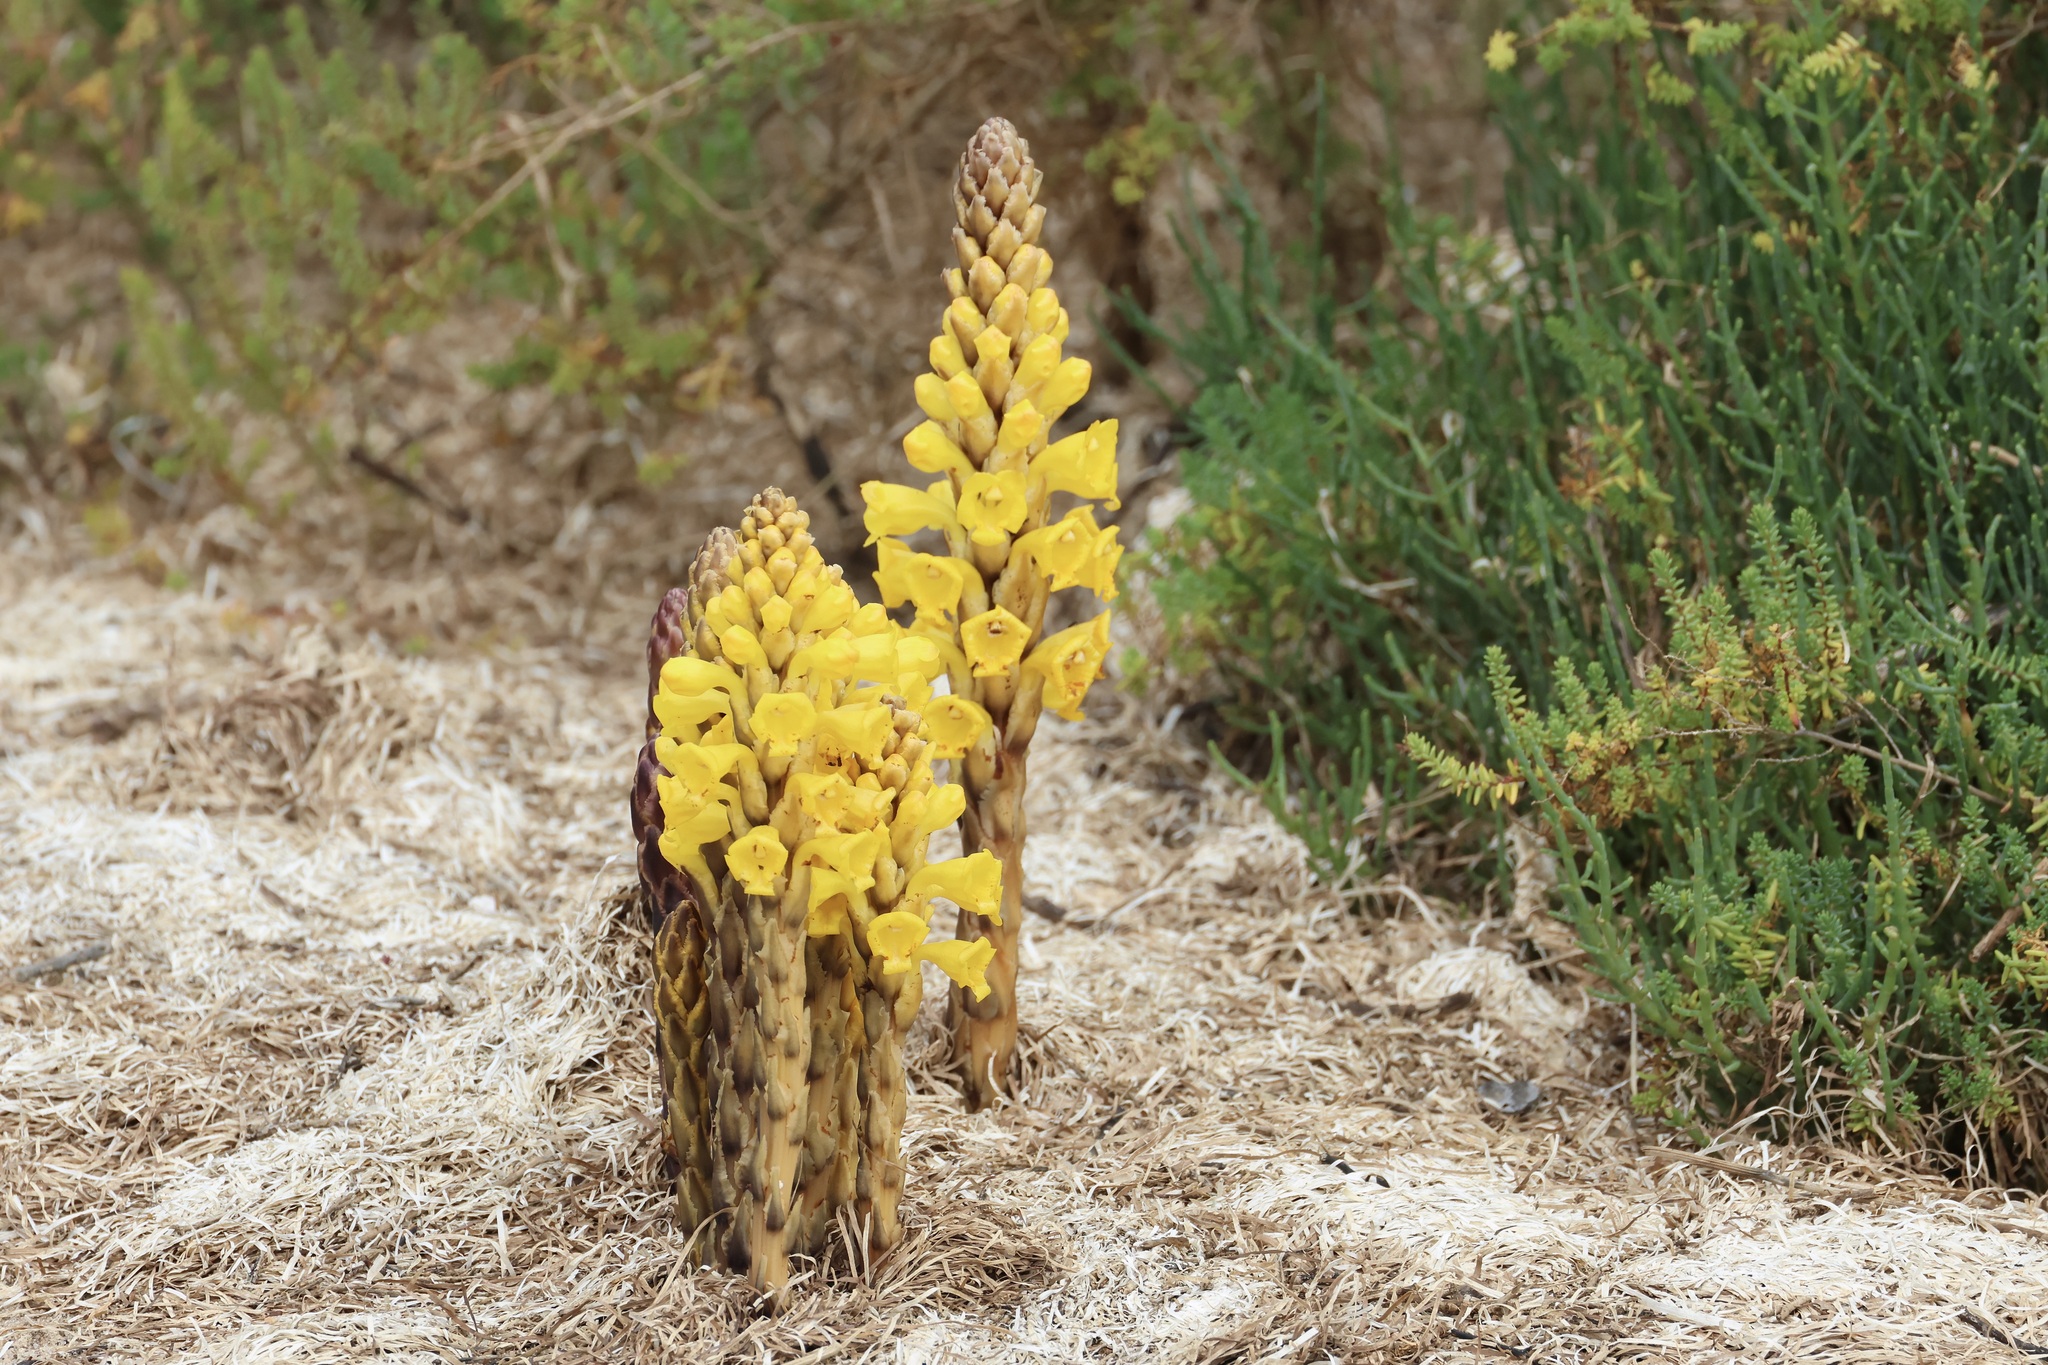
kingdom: Plantae
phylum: Tracheophyta
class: Magnoliopsida
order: Lamiales
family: Orobanchaceae
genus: Cistanche
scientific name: Cistanche phelypaea
